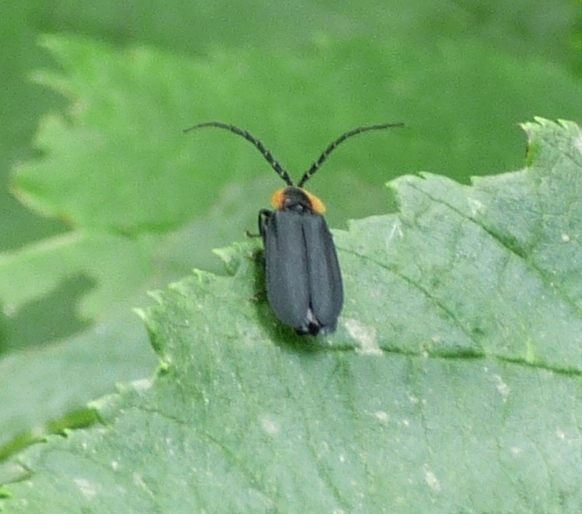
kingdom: Animalia
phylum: Arthropoda
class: Insecta
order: Coleoptera
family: Lampyridae
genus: Lucidota
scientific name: Lucidota atra
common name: Black firefly
